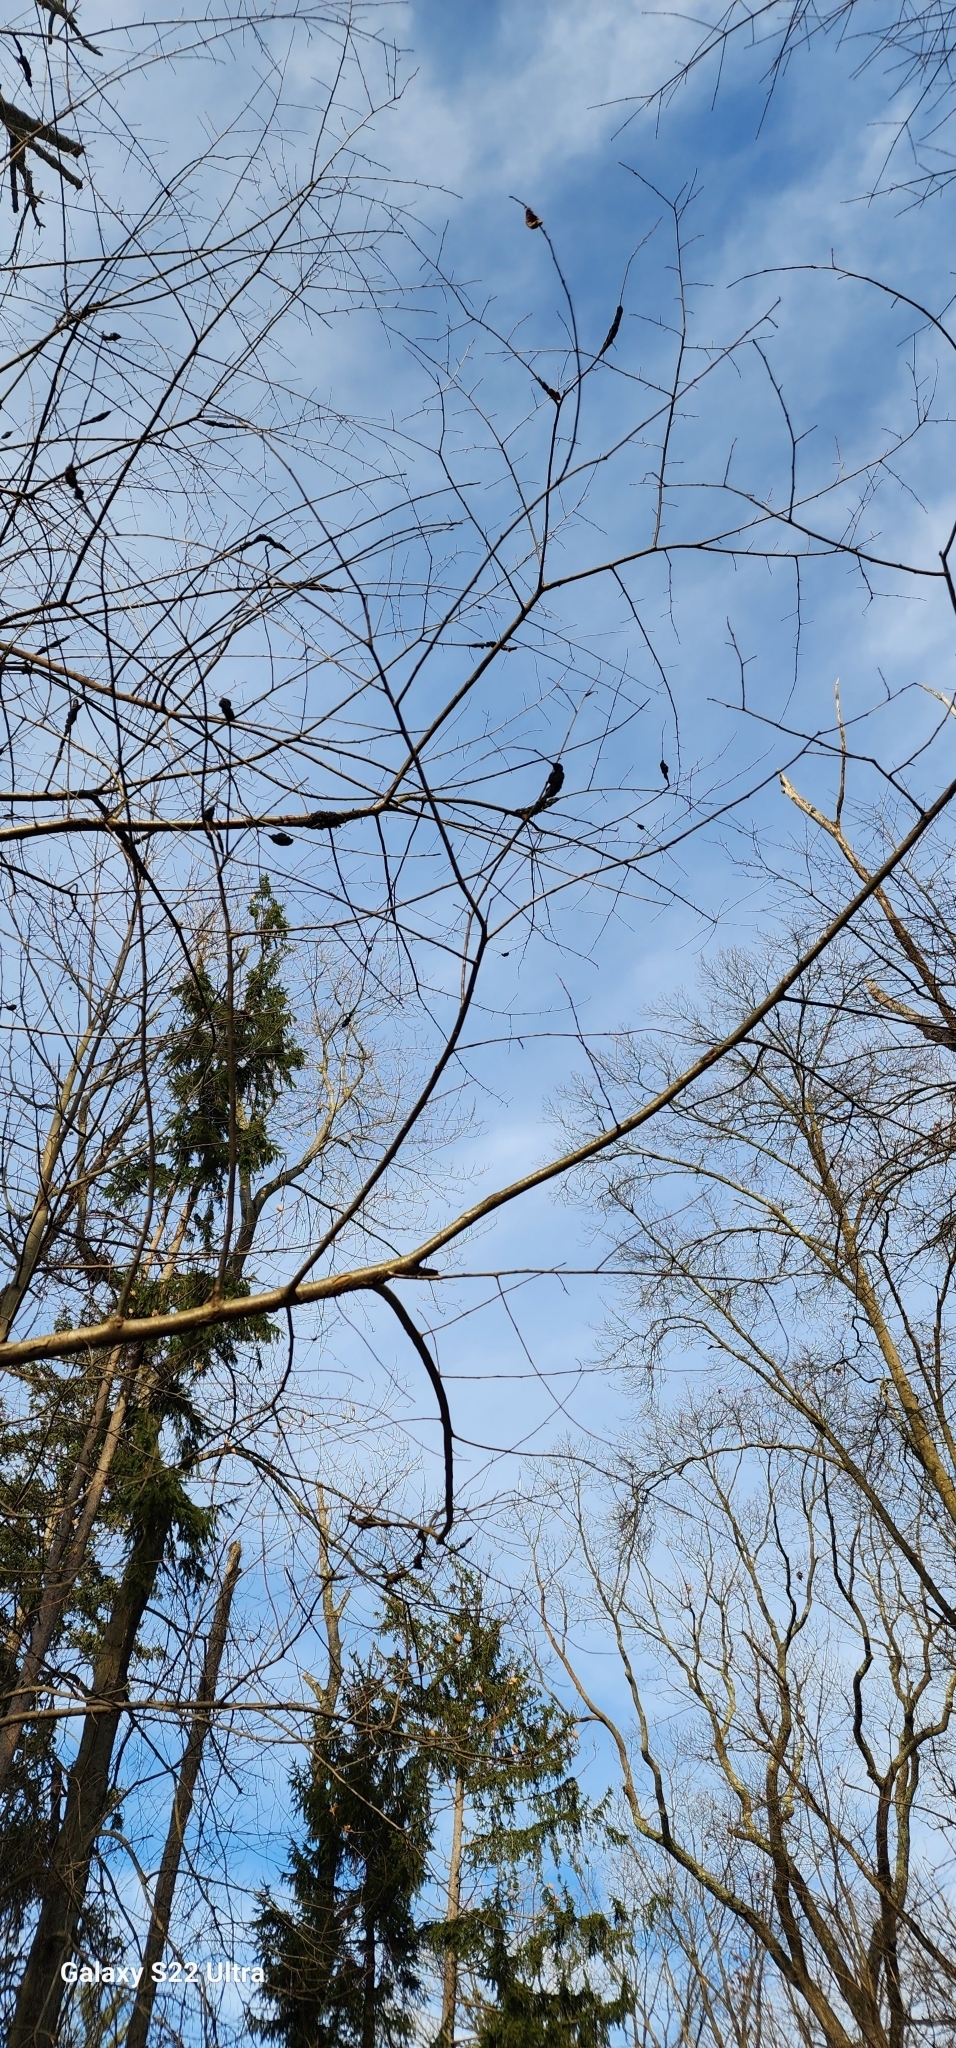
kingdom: Fungi
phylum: Ascomycota
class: Dothideomycetes
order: Venturiales
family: Venturiaceae
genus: Apiosporina
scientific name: Apiosporina morbosa
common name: Black knot
